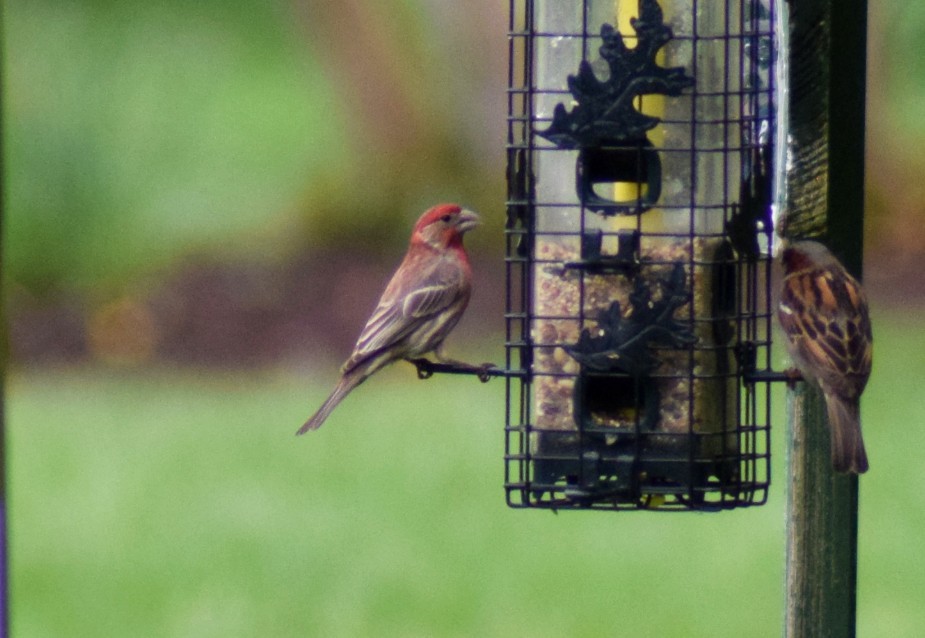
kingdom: Animalia
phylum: Chordata
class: Aves
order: Passeriformes
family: Fringillidae
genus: Haemorhous
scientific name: Haemorhous mexicanus
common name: House finch
